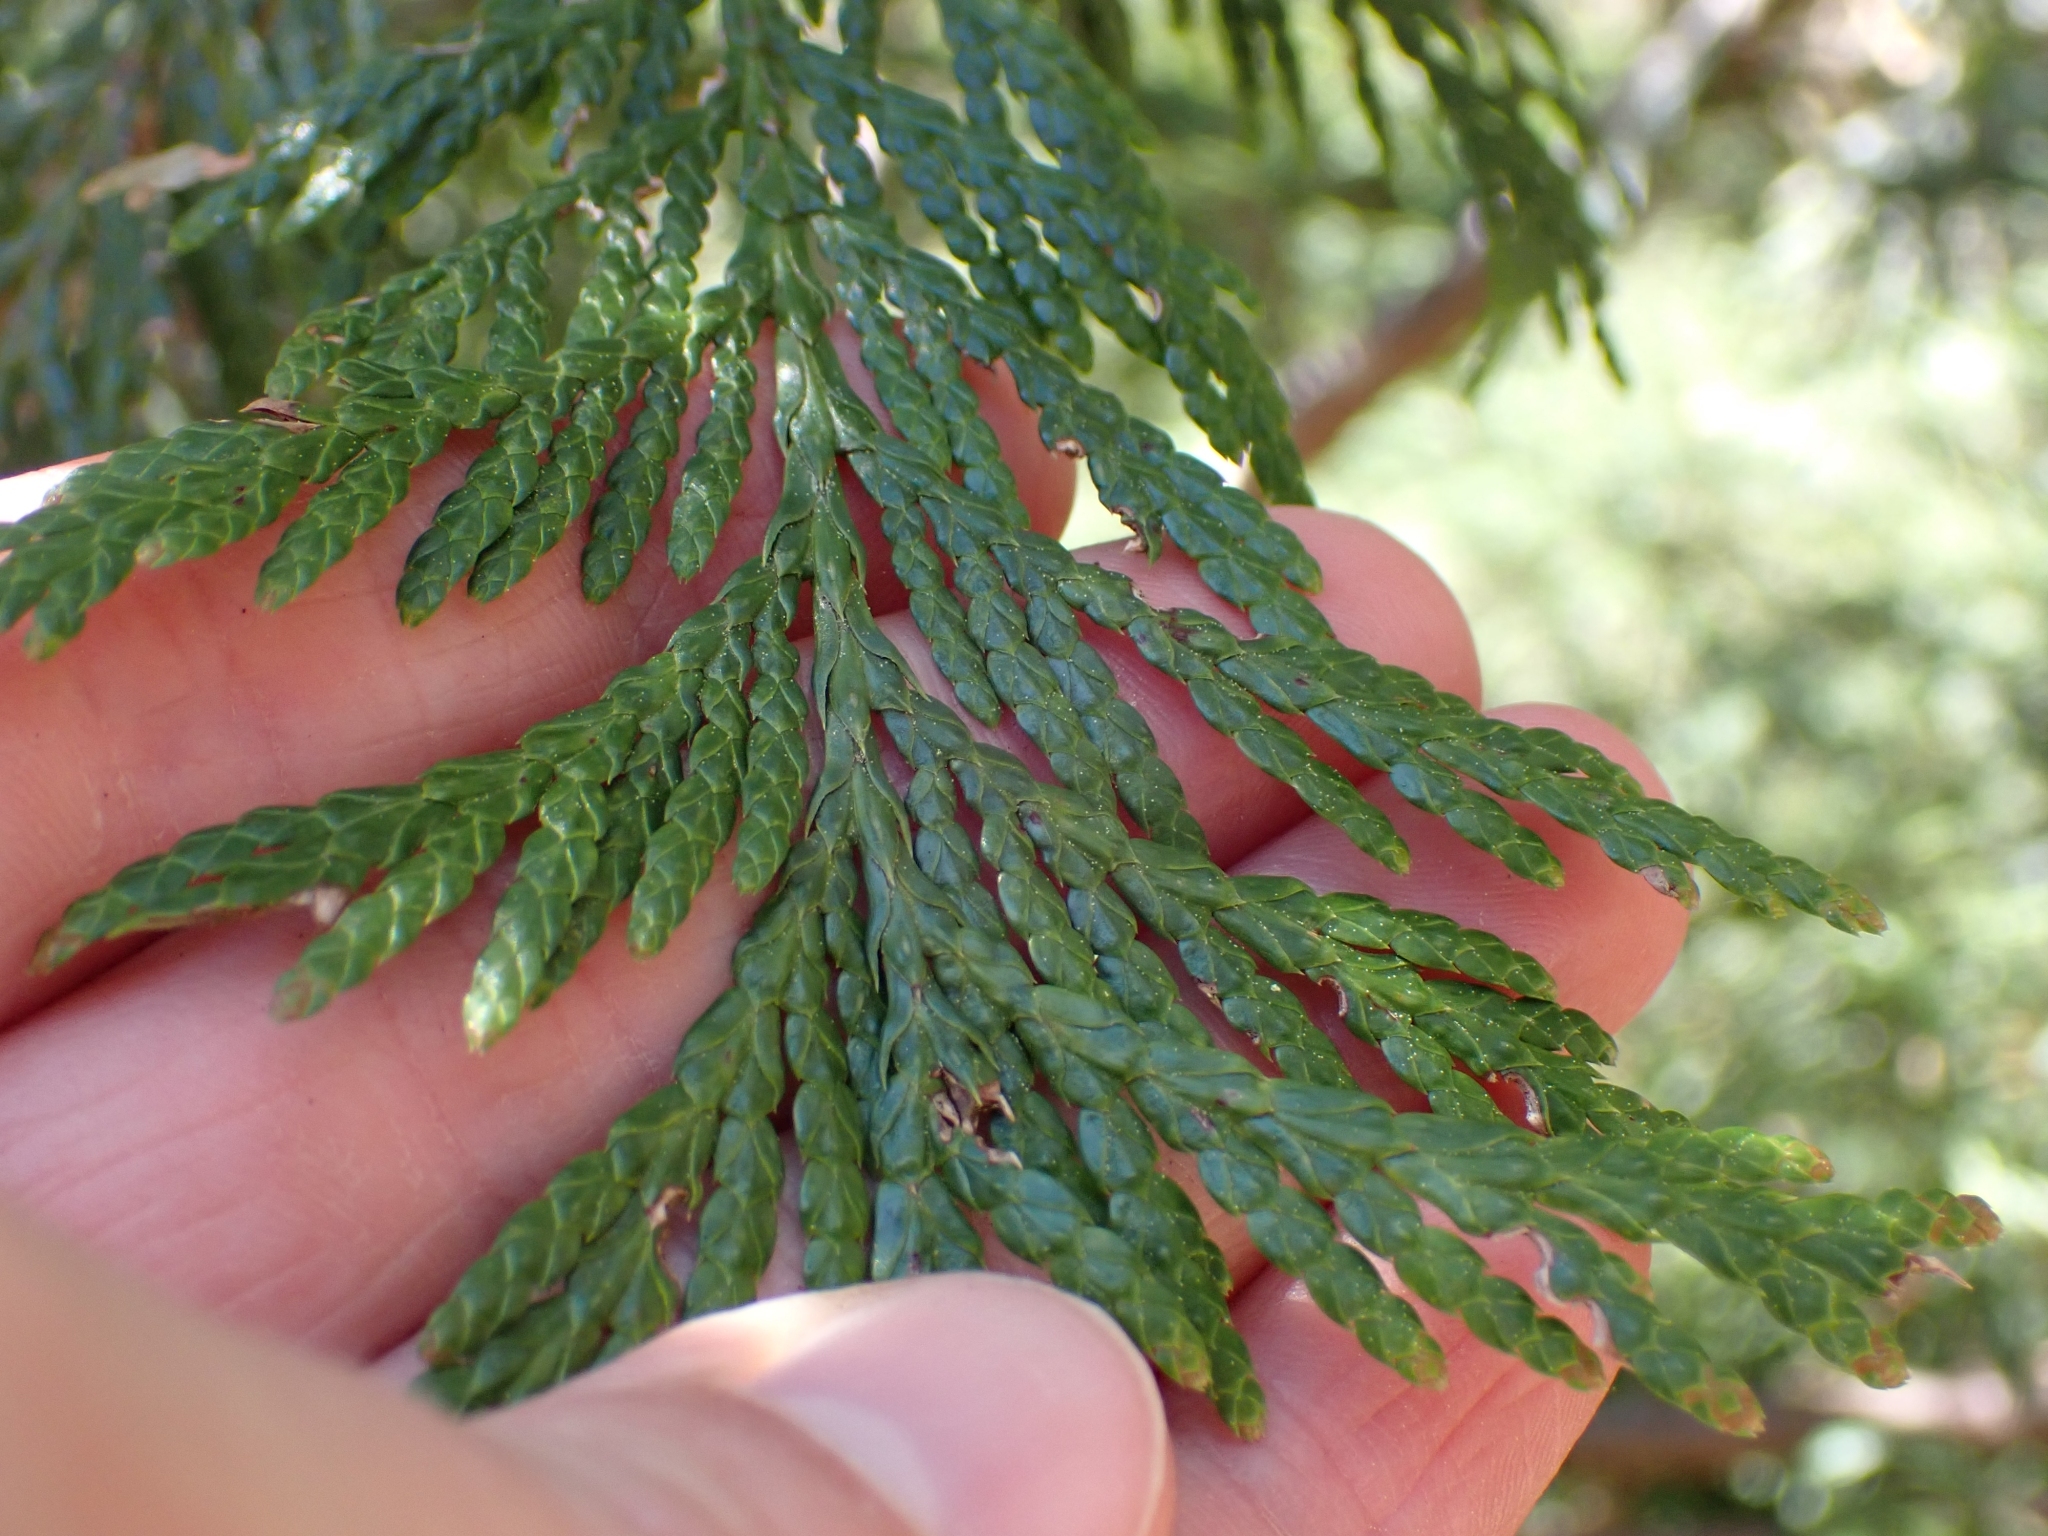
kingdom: Plantae
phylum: Tracheophyta
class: Pinopsida
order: Pinales
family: Cupressaceae
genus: Thuja
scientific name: Thuja plicata
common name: Western red-cedar
